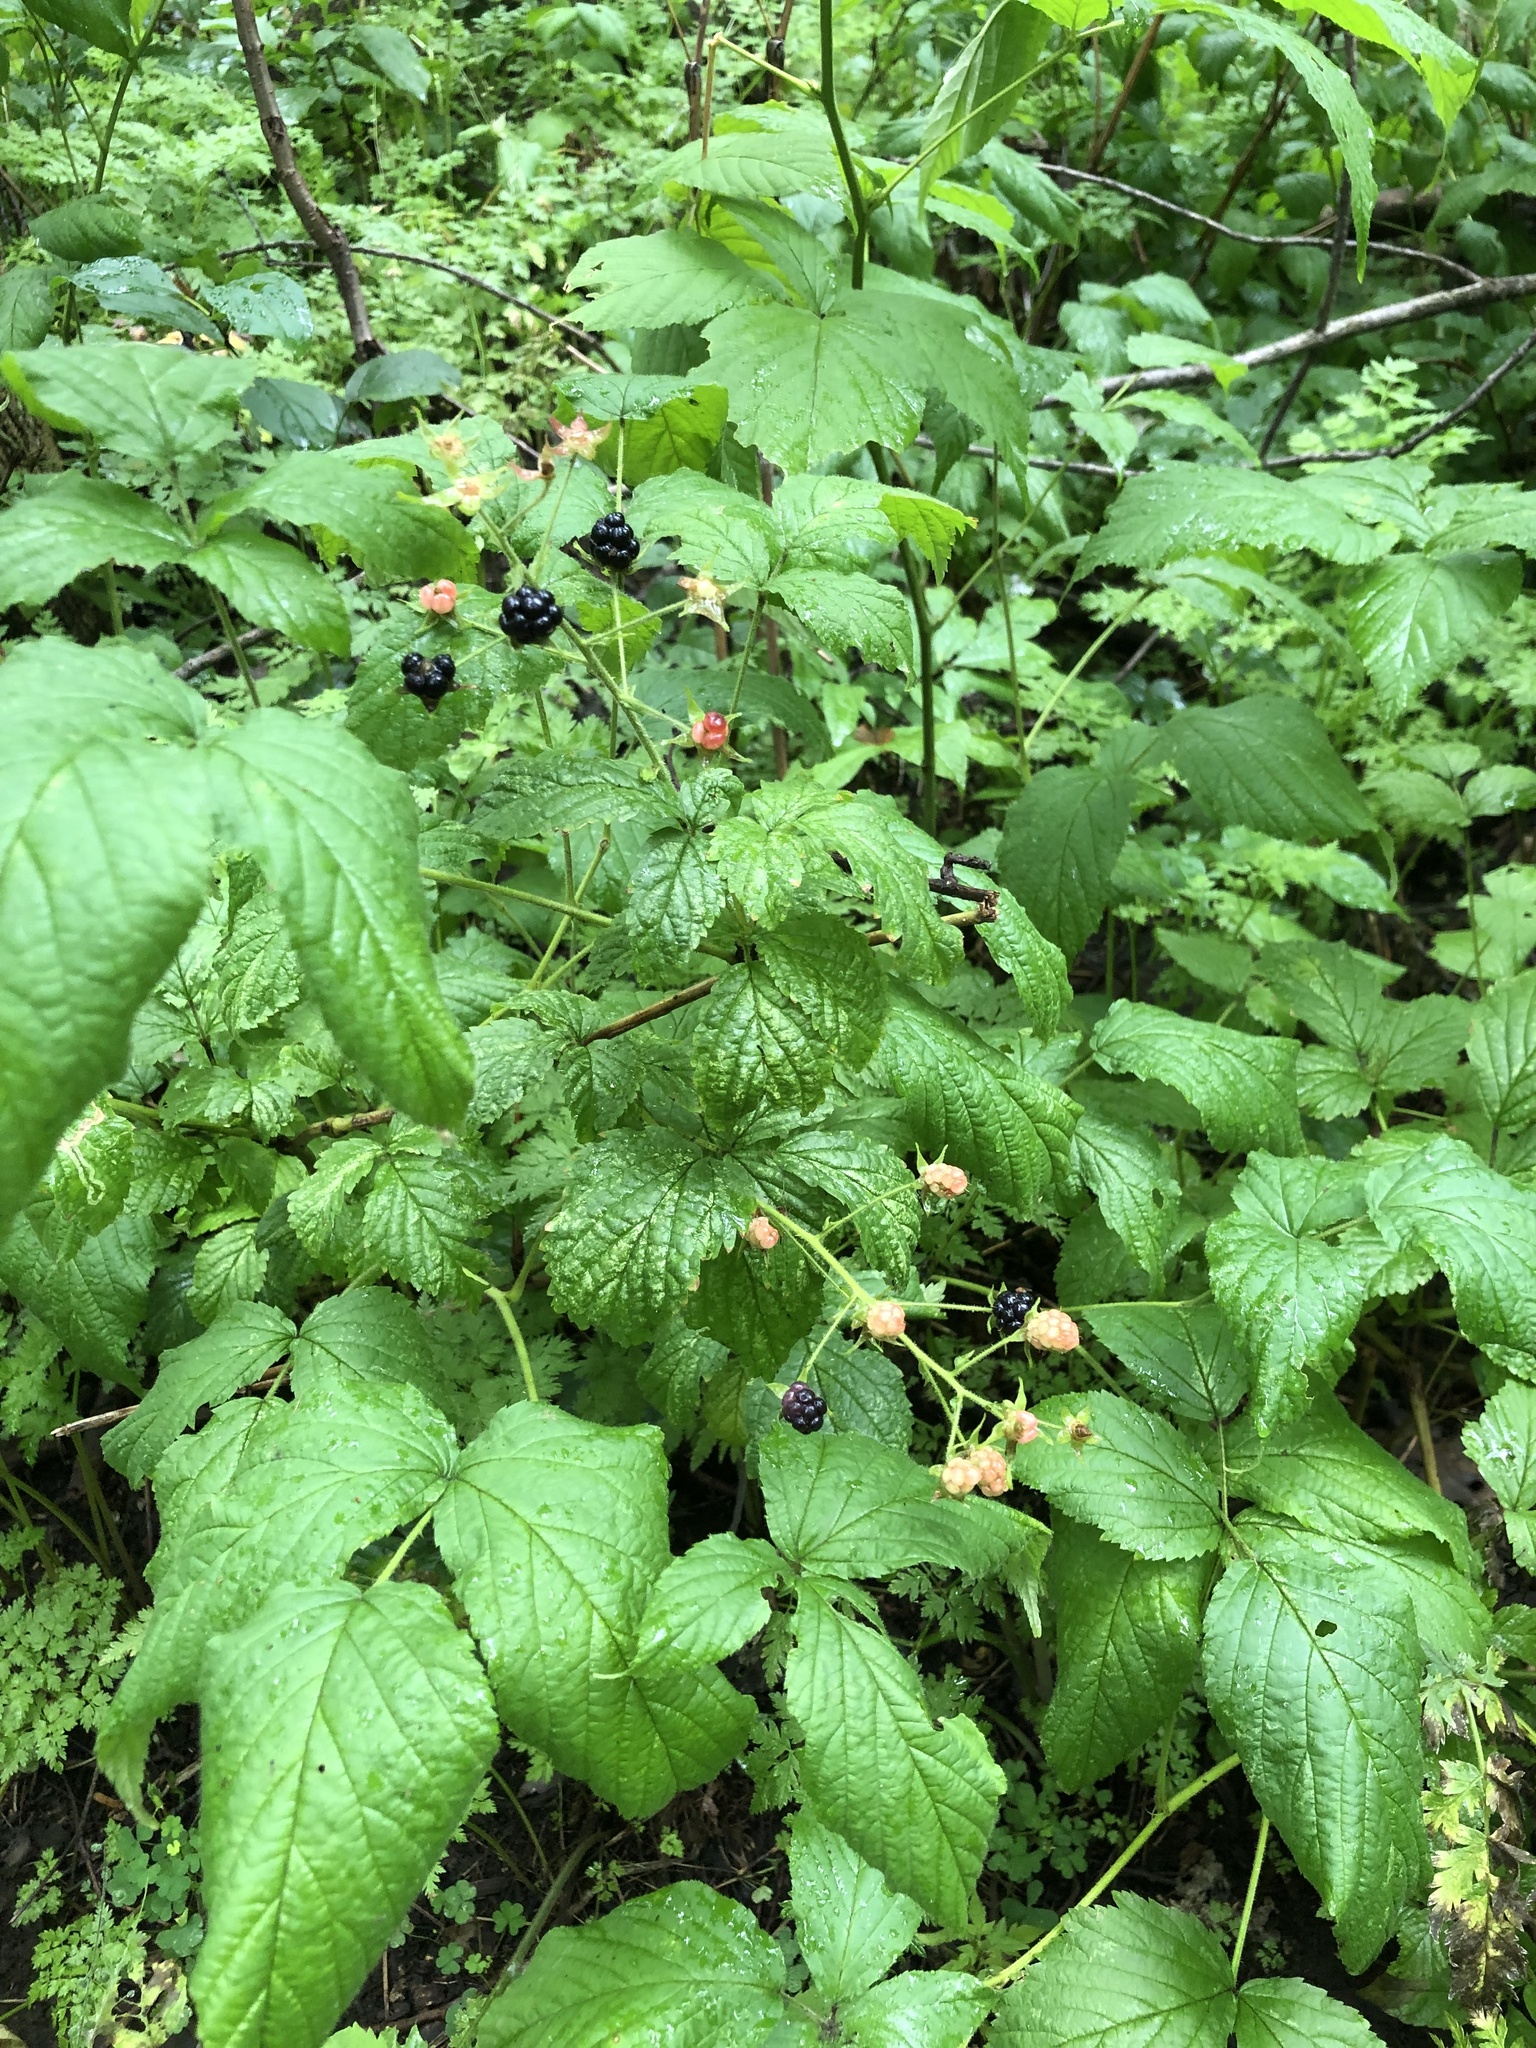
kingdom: Plantae
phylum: Tracheophyta
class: Magnoliopsida
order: Rosales
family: Rosaceae
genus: Rubus
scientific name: Rubus allegheniensis
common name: Allegheny blackberry
